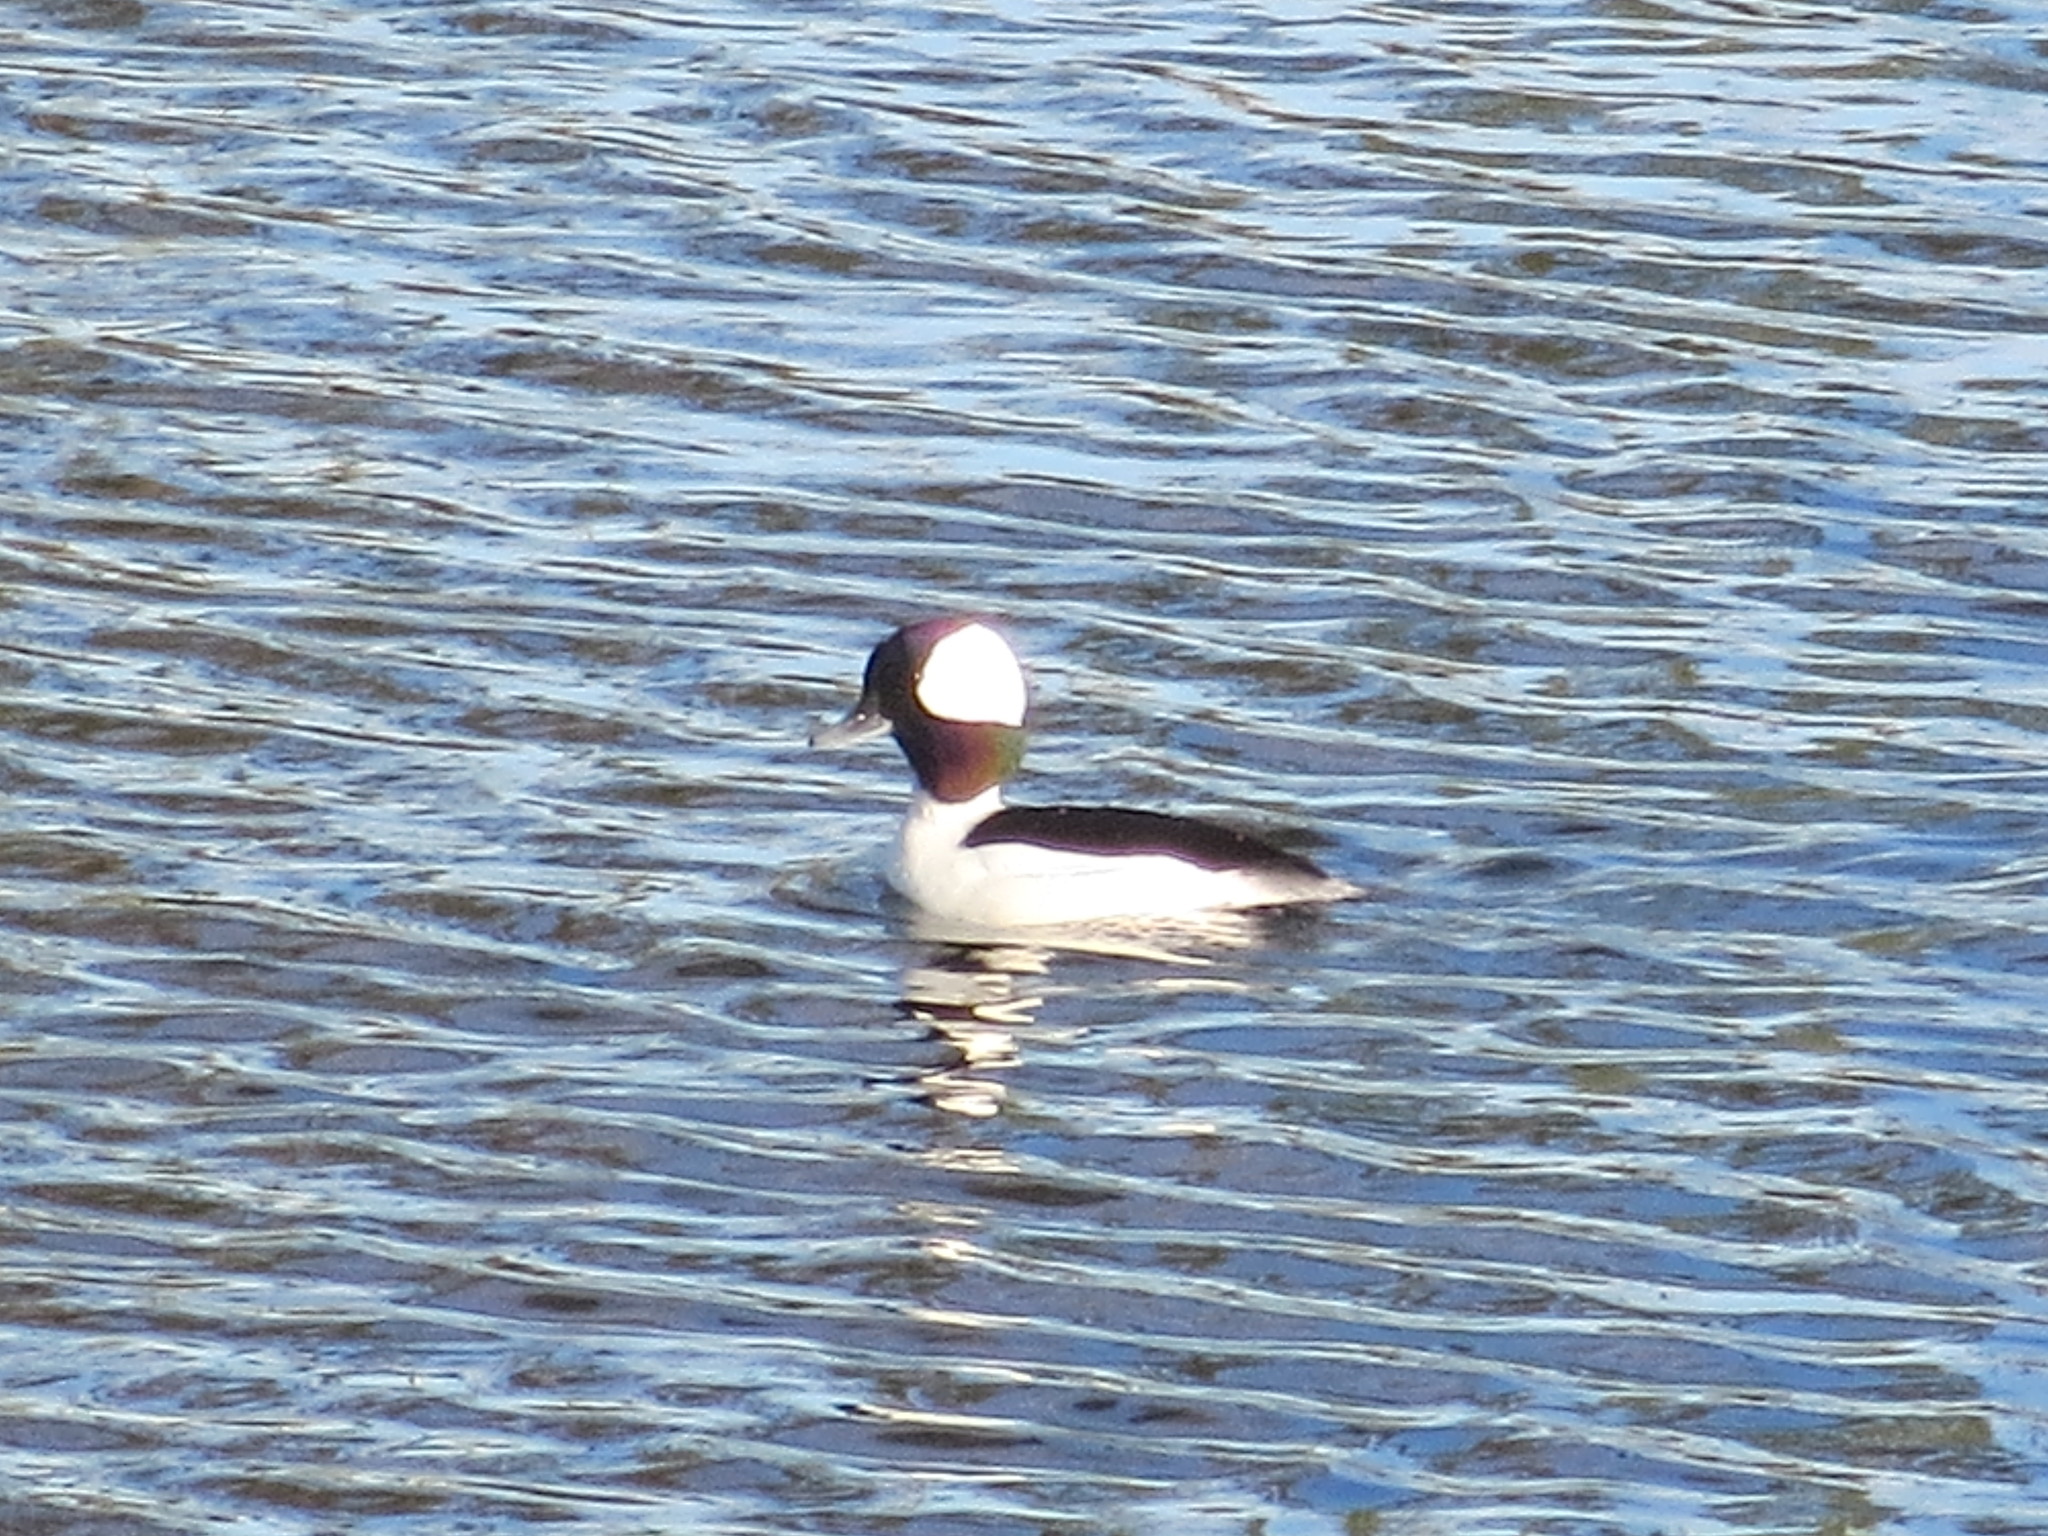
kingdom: Animalia
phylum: Chordata
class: Aves
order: Anseriformes
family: Anatidae
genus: Bucephala
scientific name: Bucephala albeola
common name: Bufflehead
